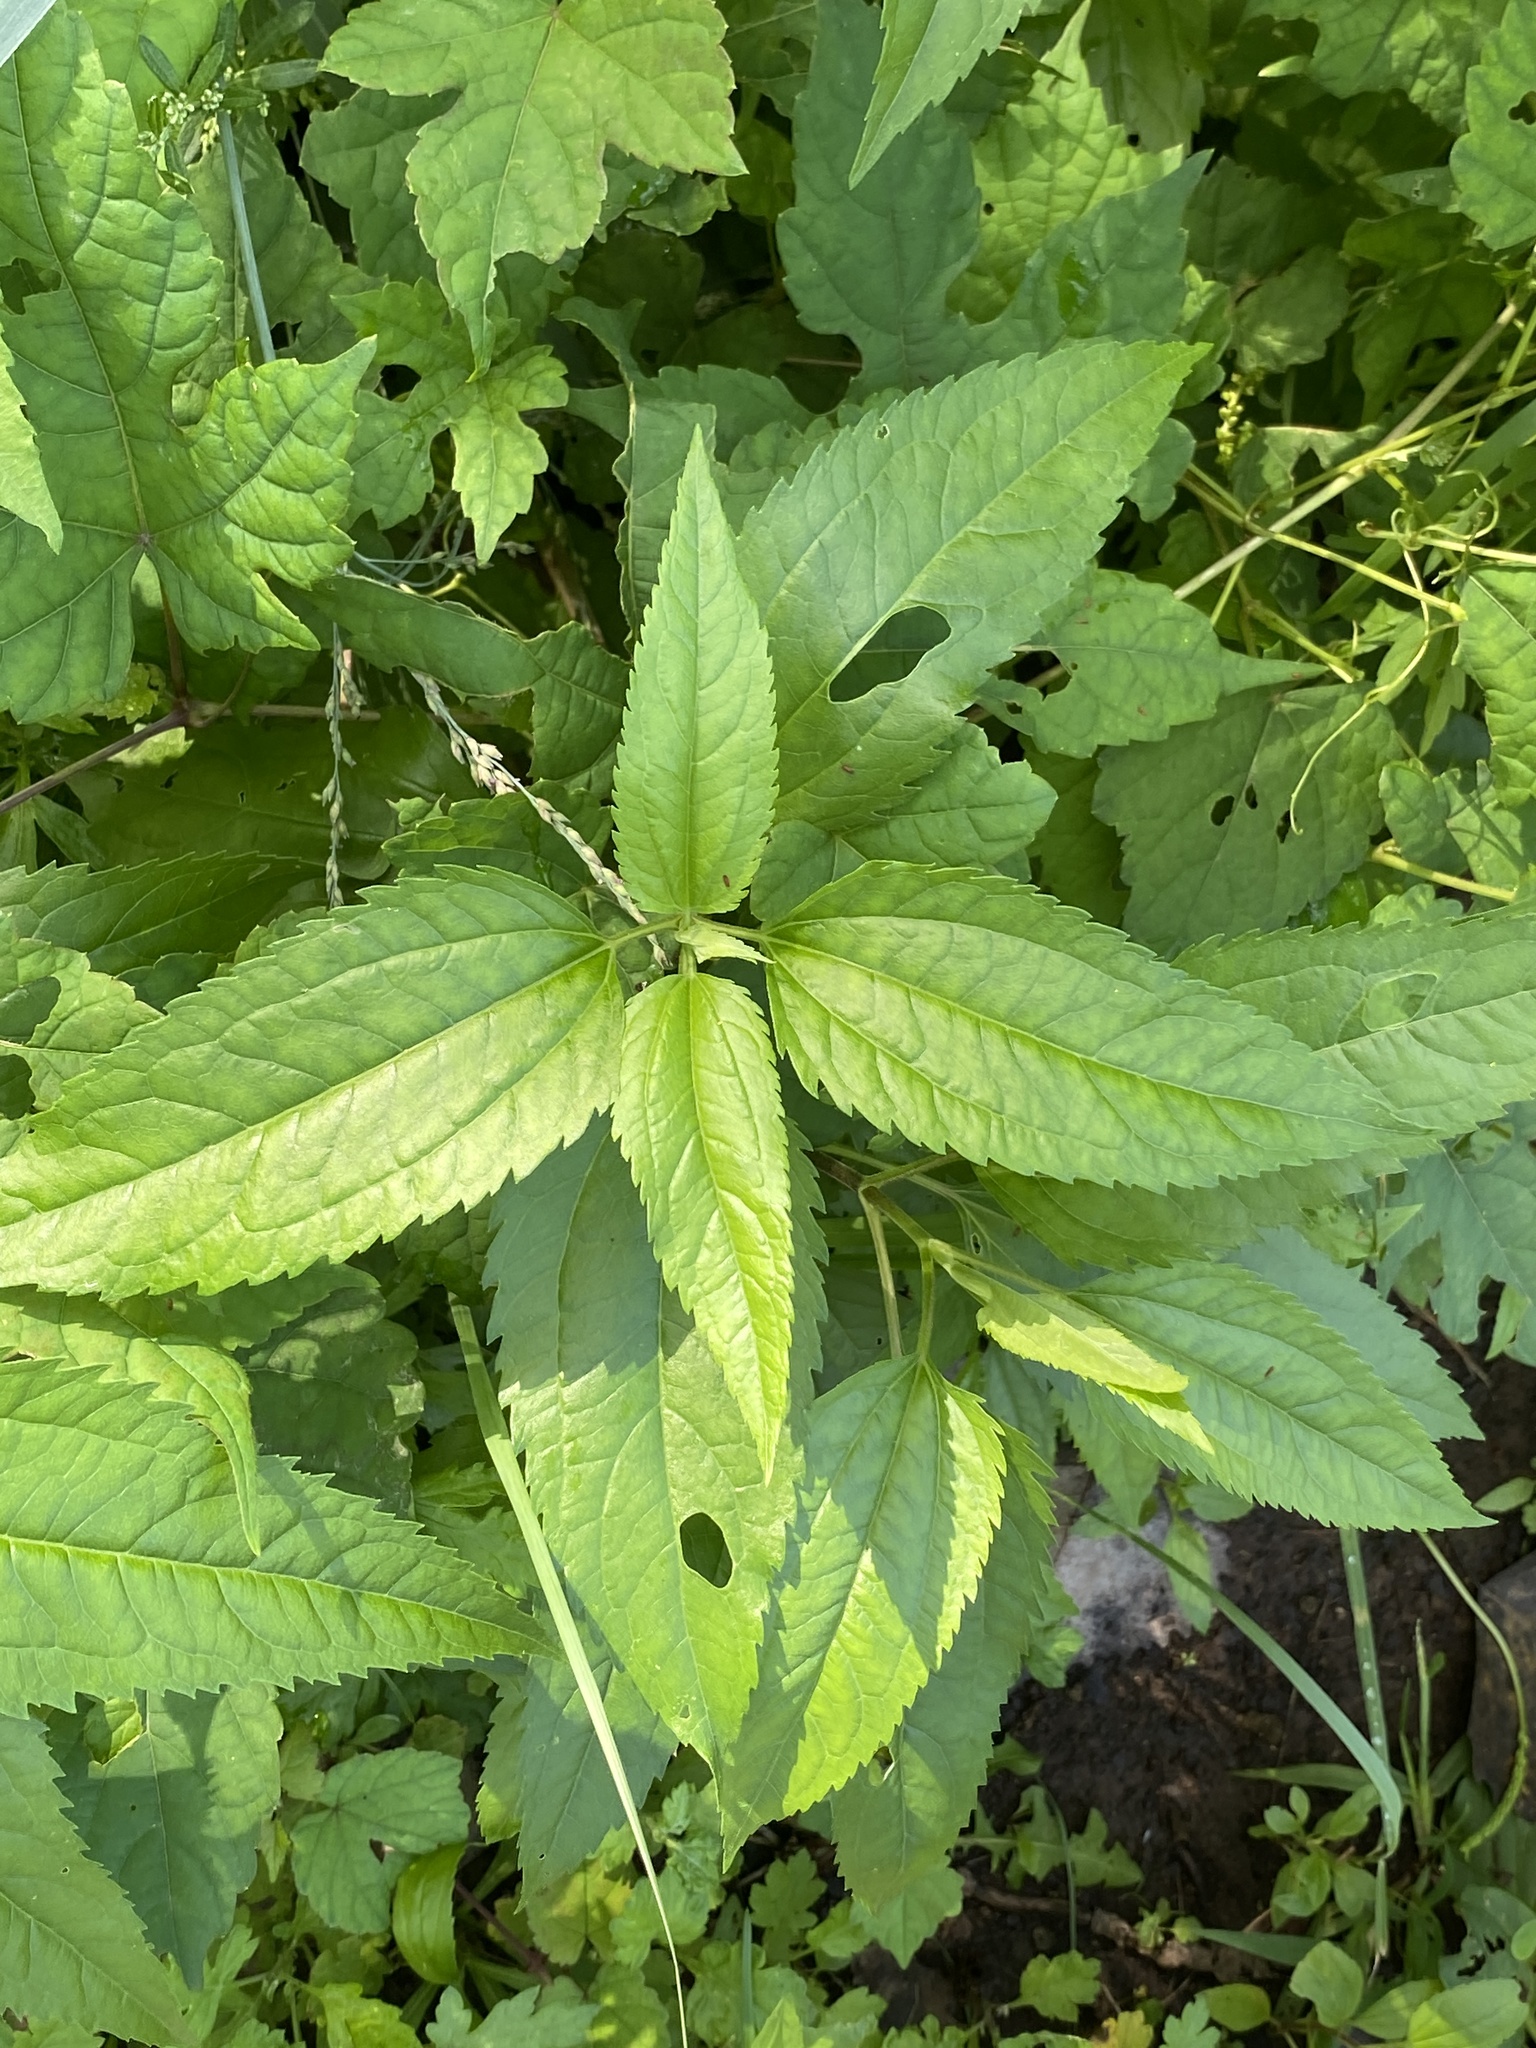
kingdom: Plantae
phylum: Tracheophyta
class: Magnoliopsida
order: Asterales
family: Asteraceae
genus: Eupatorium
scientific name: Eupatorium serotinum
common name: Late boneset
